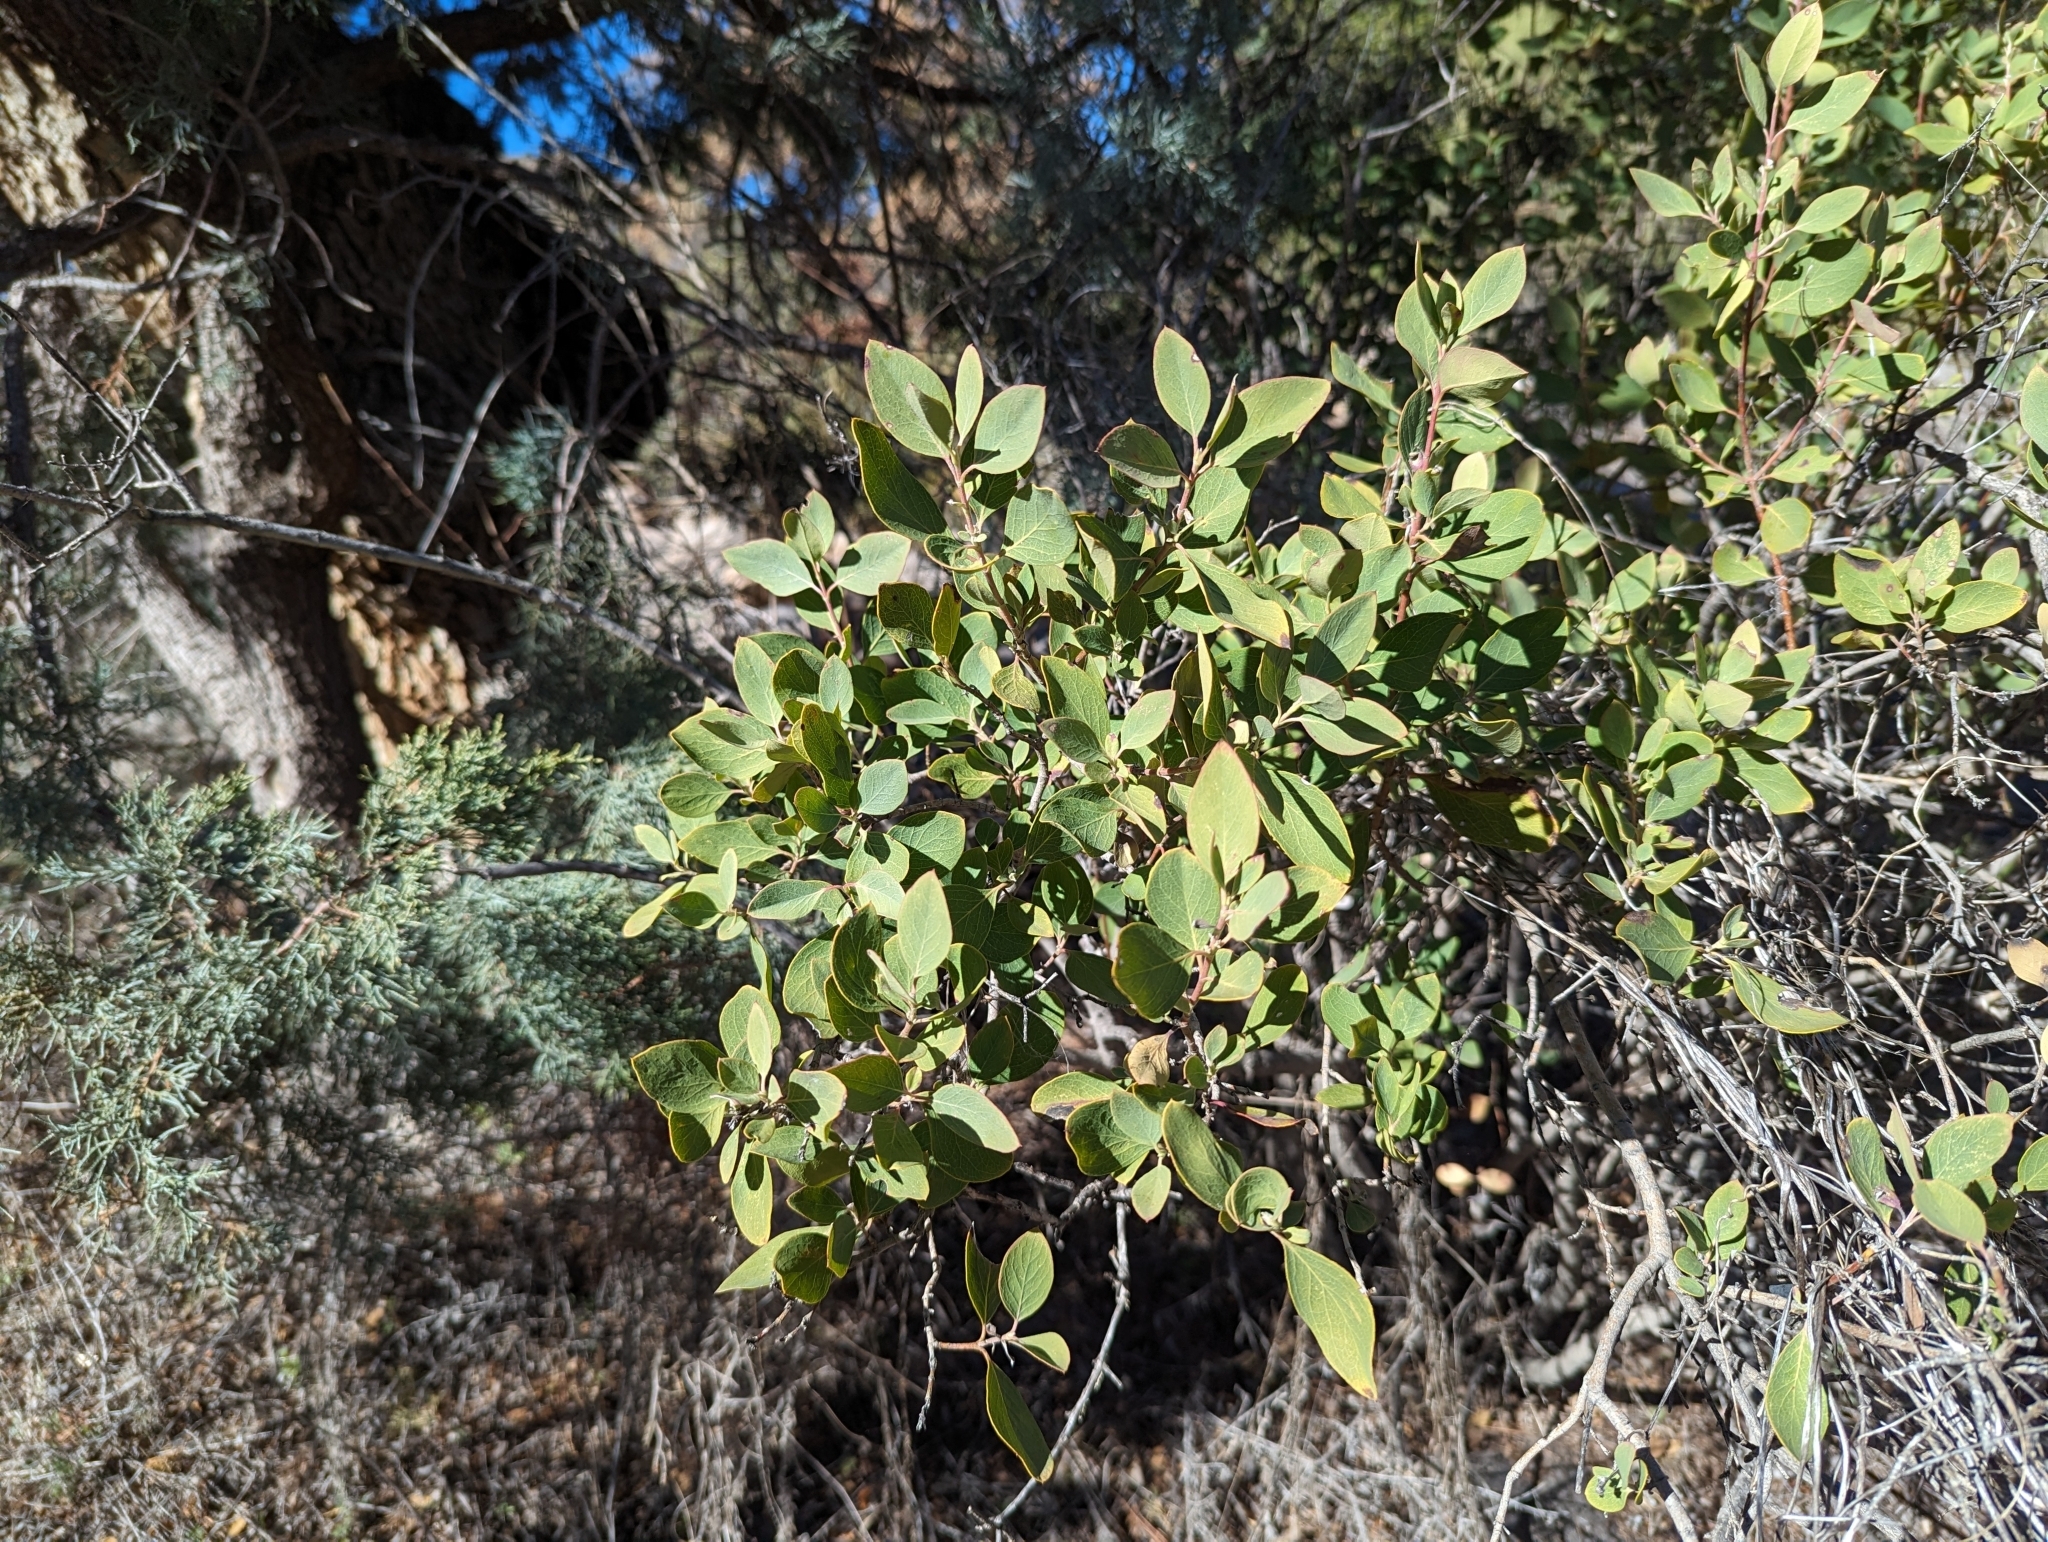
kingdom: Plantae
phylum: Tracheophyta
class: Magnoliopsida
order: Garryales
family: Garryaceae
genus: Garrya
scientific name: Garrya wrightii
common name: Wright's silktassel
